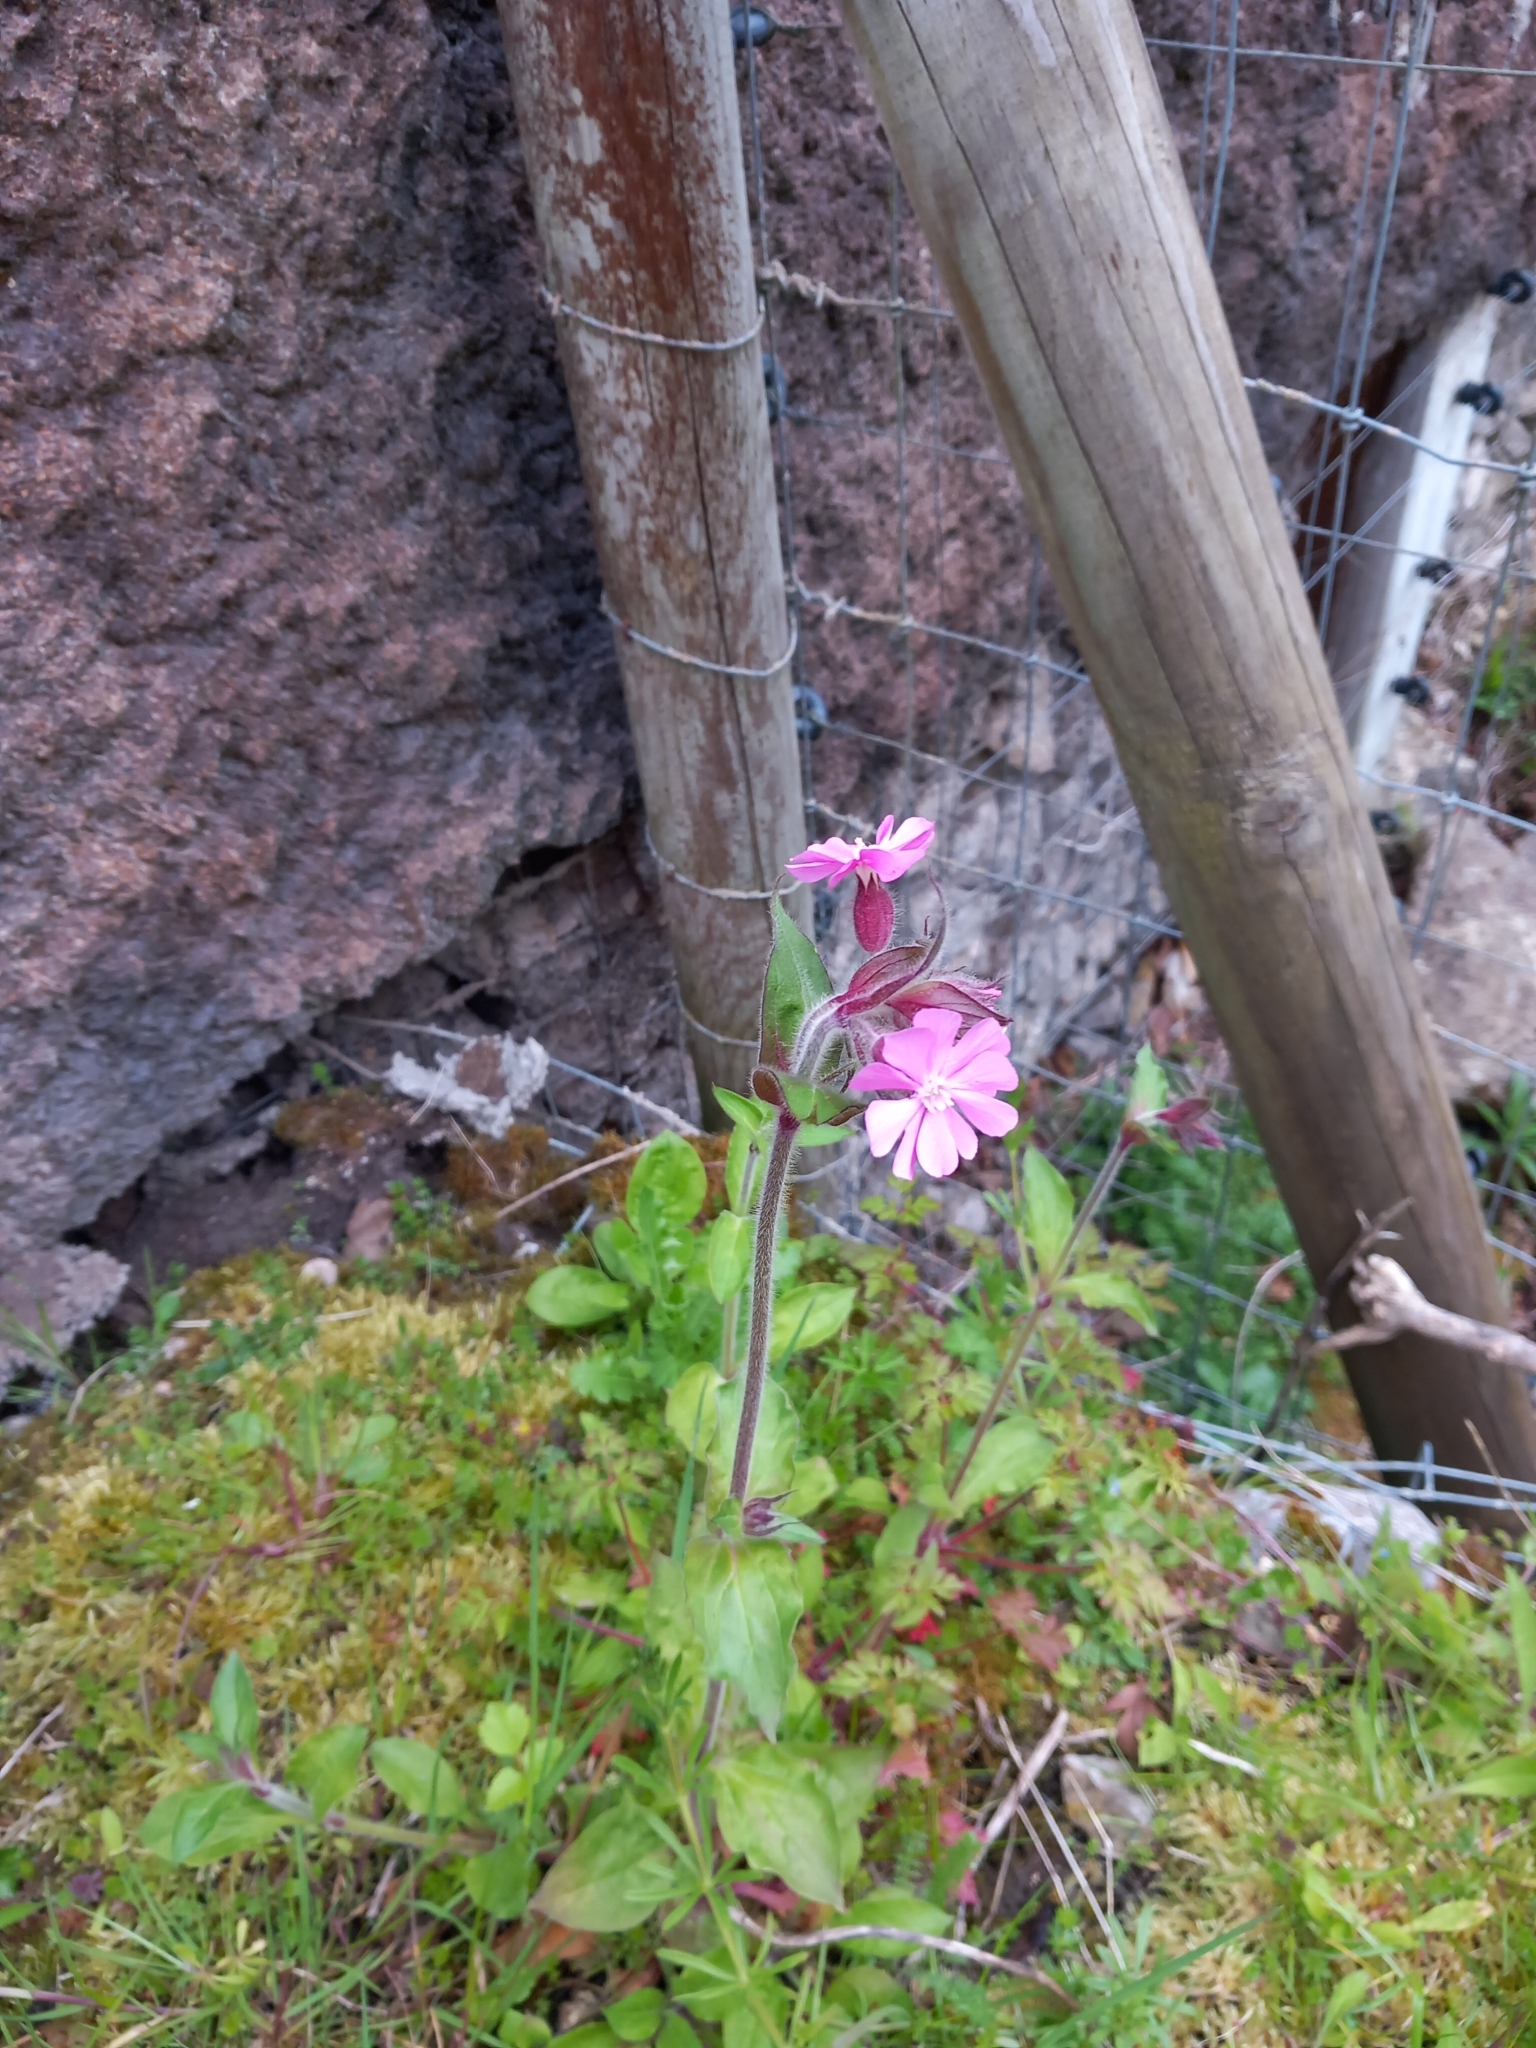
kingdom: Plantae
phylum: Tracheophyta
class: Magnoliopsida
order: Caryophyllales
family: Caryophyllaceae
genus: Silene
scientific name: Silene dioica
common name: Red campion
